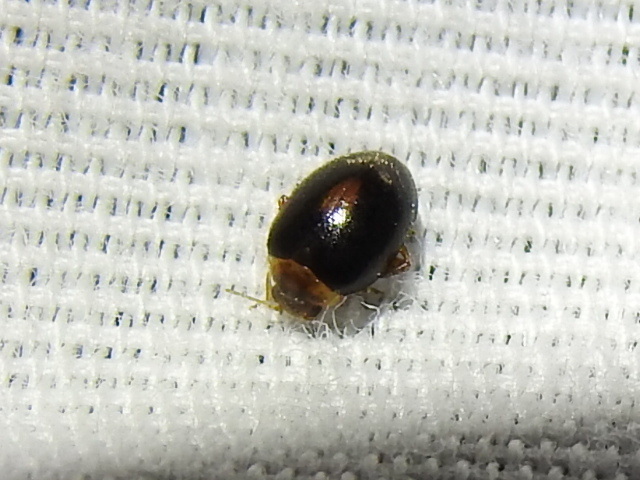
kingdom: Animalia
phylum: Arthropoda
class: Insecta
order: Coleoptera
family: Scirtidae
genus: Scirtes
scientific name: Scirtes orbiculatus
